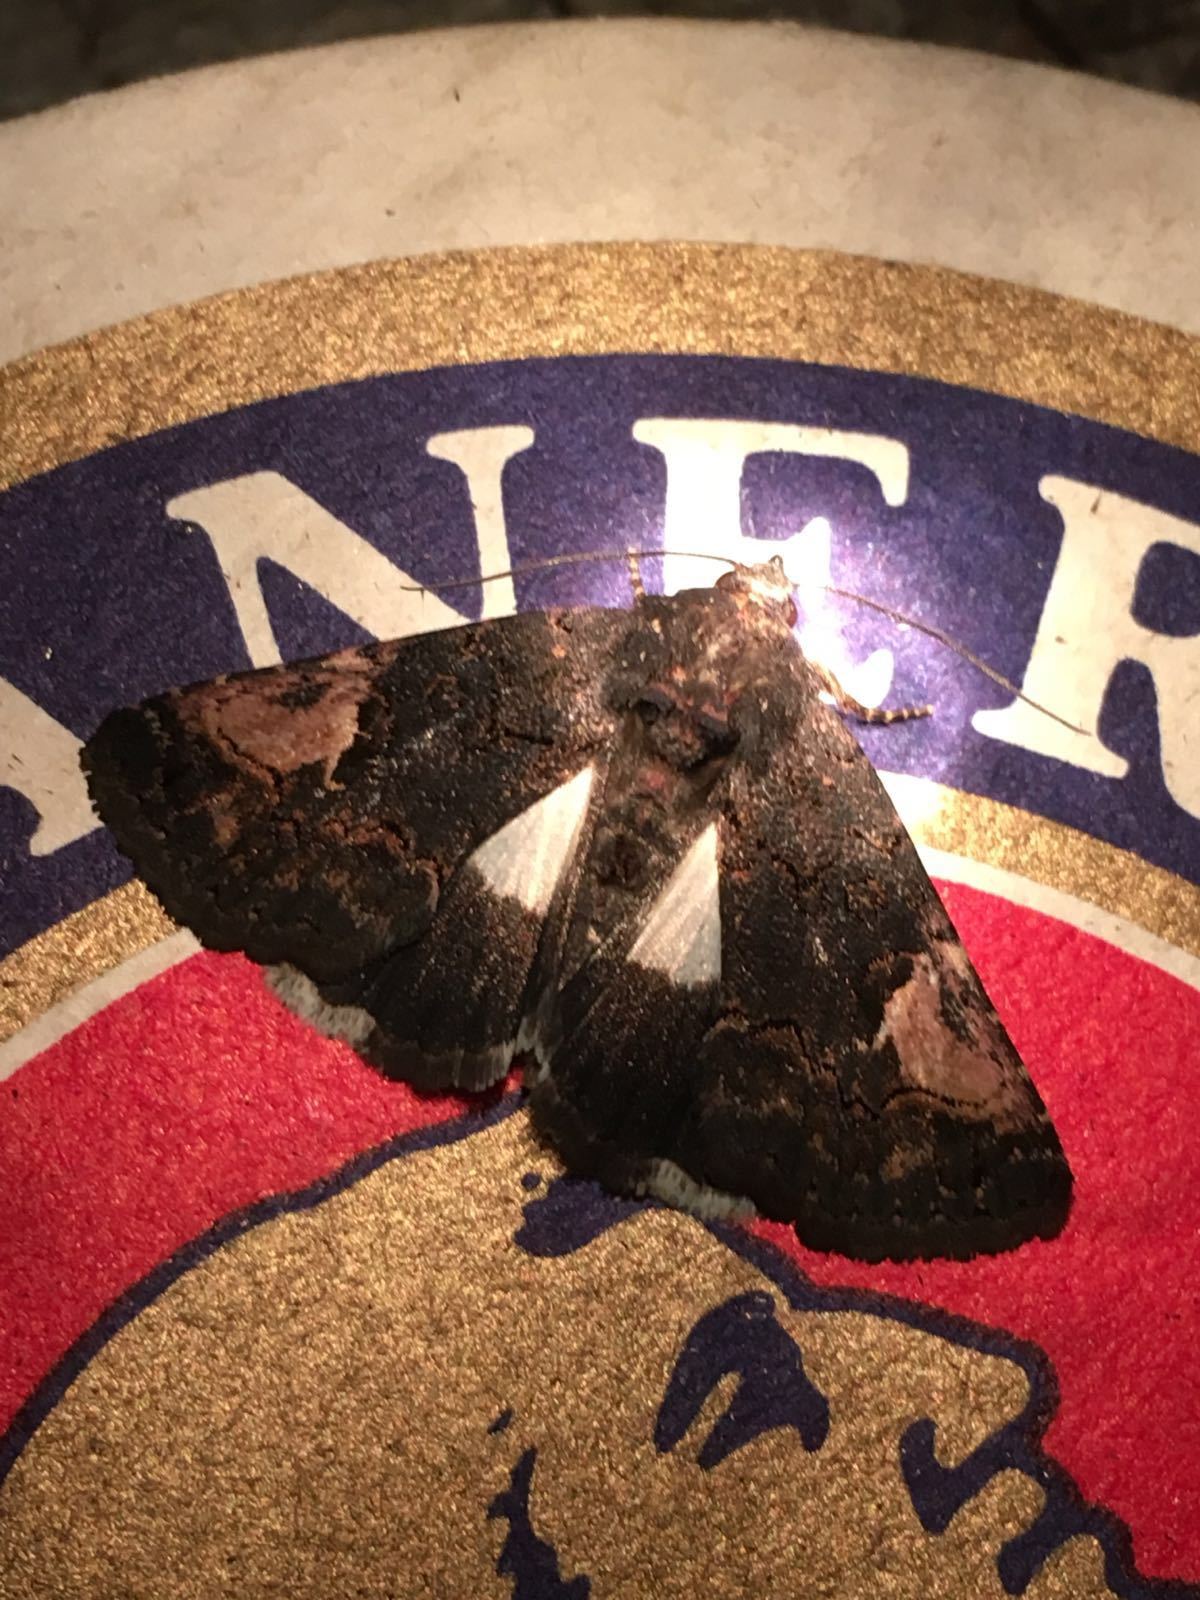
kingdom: Animalia
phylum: Arthropoda
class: Insecta
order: Lepidoptera
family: Noctuidae
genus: Aedia
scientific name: Aedia funesta
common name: The druid
